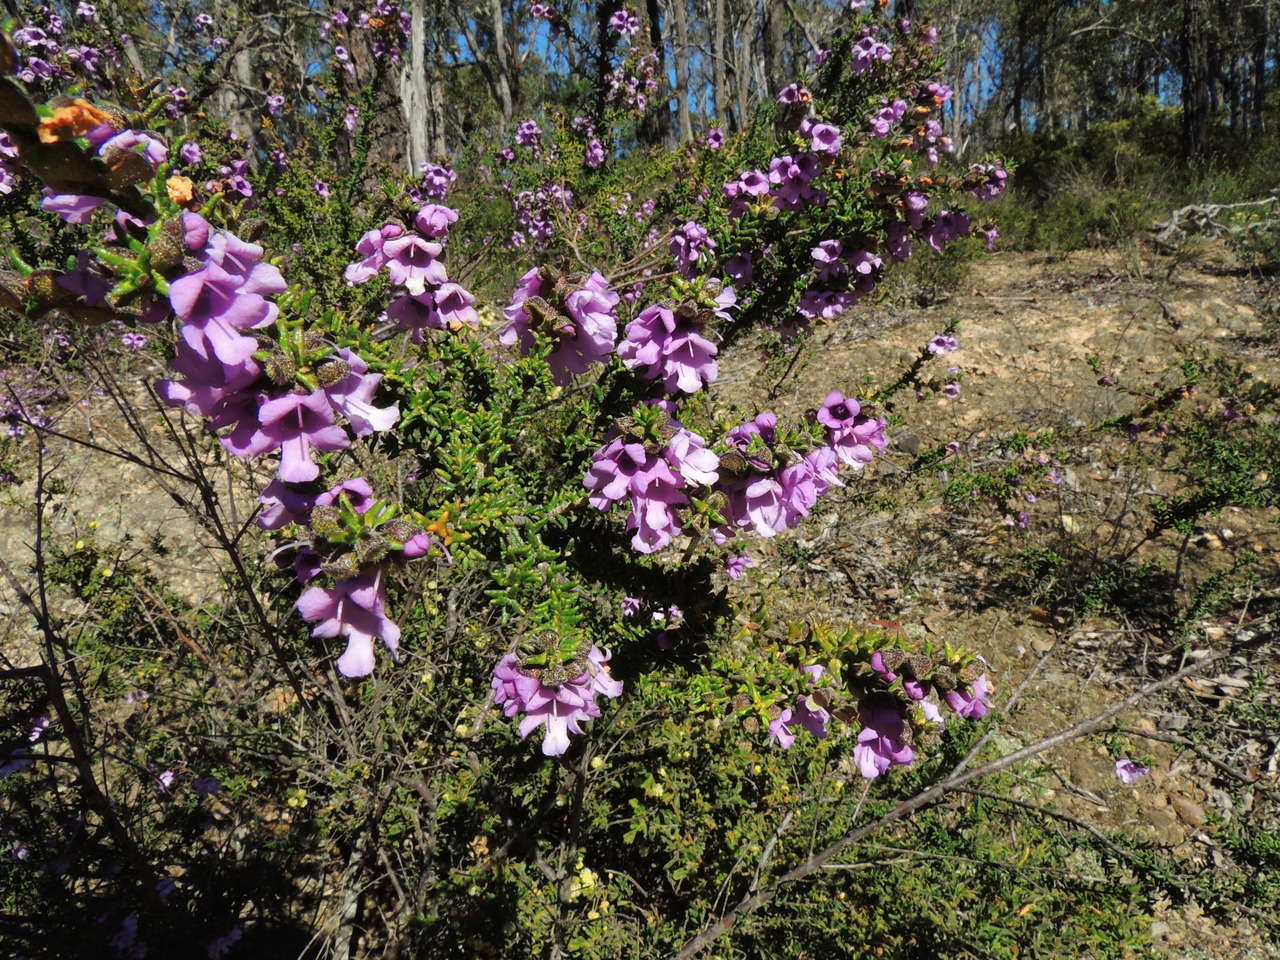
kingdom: Plantae
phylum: Tracheophyta
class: Magnoliopsida
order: Lamiales
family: Lamiaceae
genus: Prostanthera
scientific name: Prostanthera decussata
